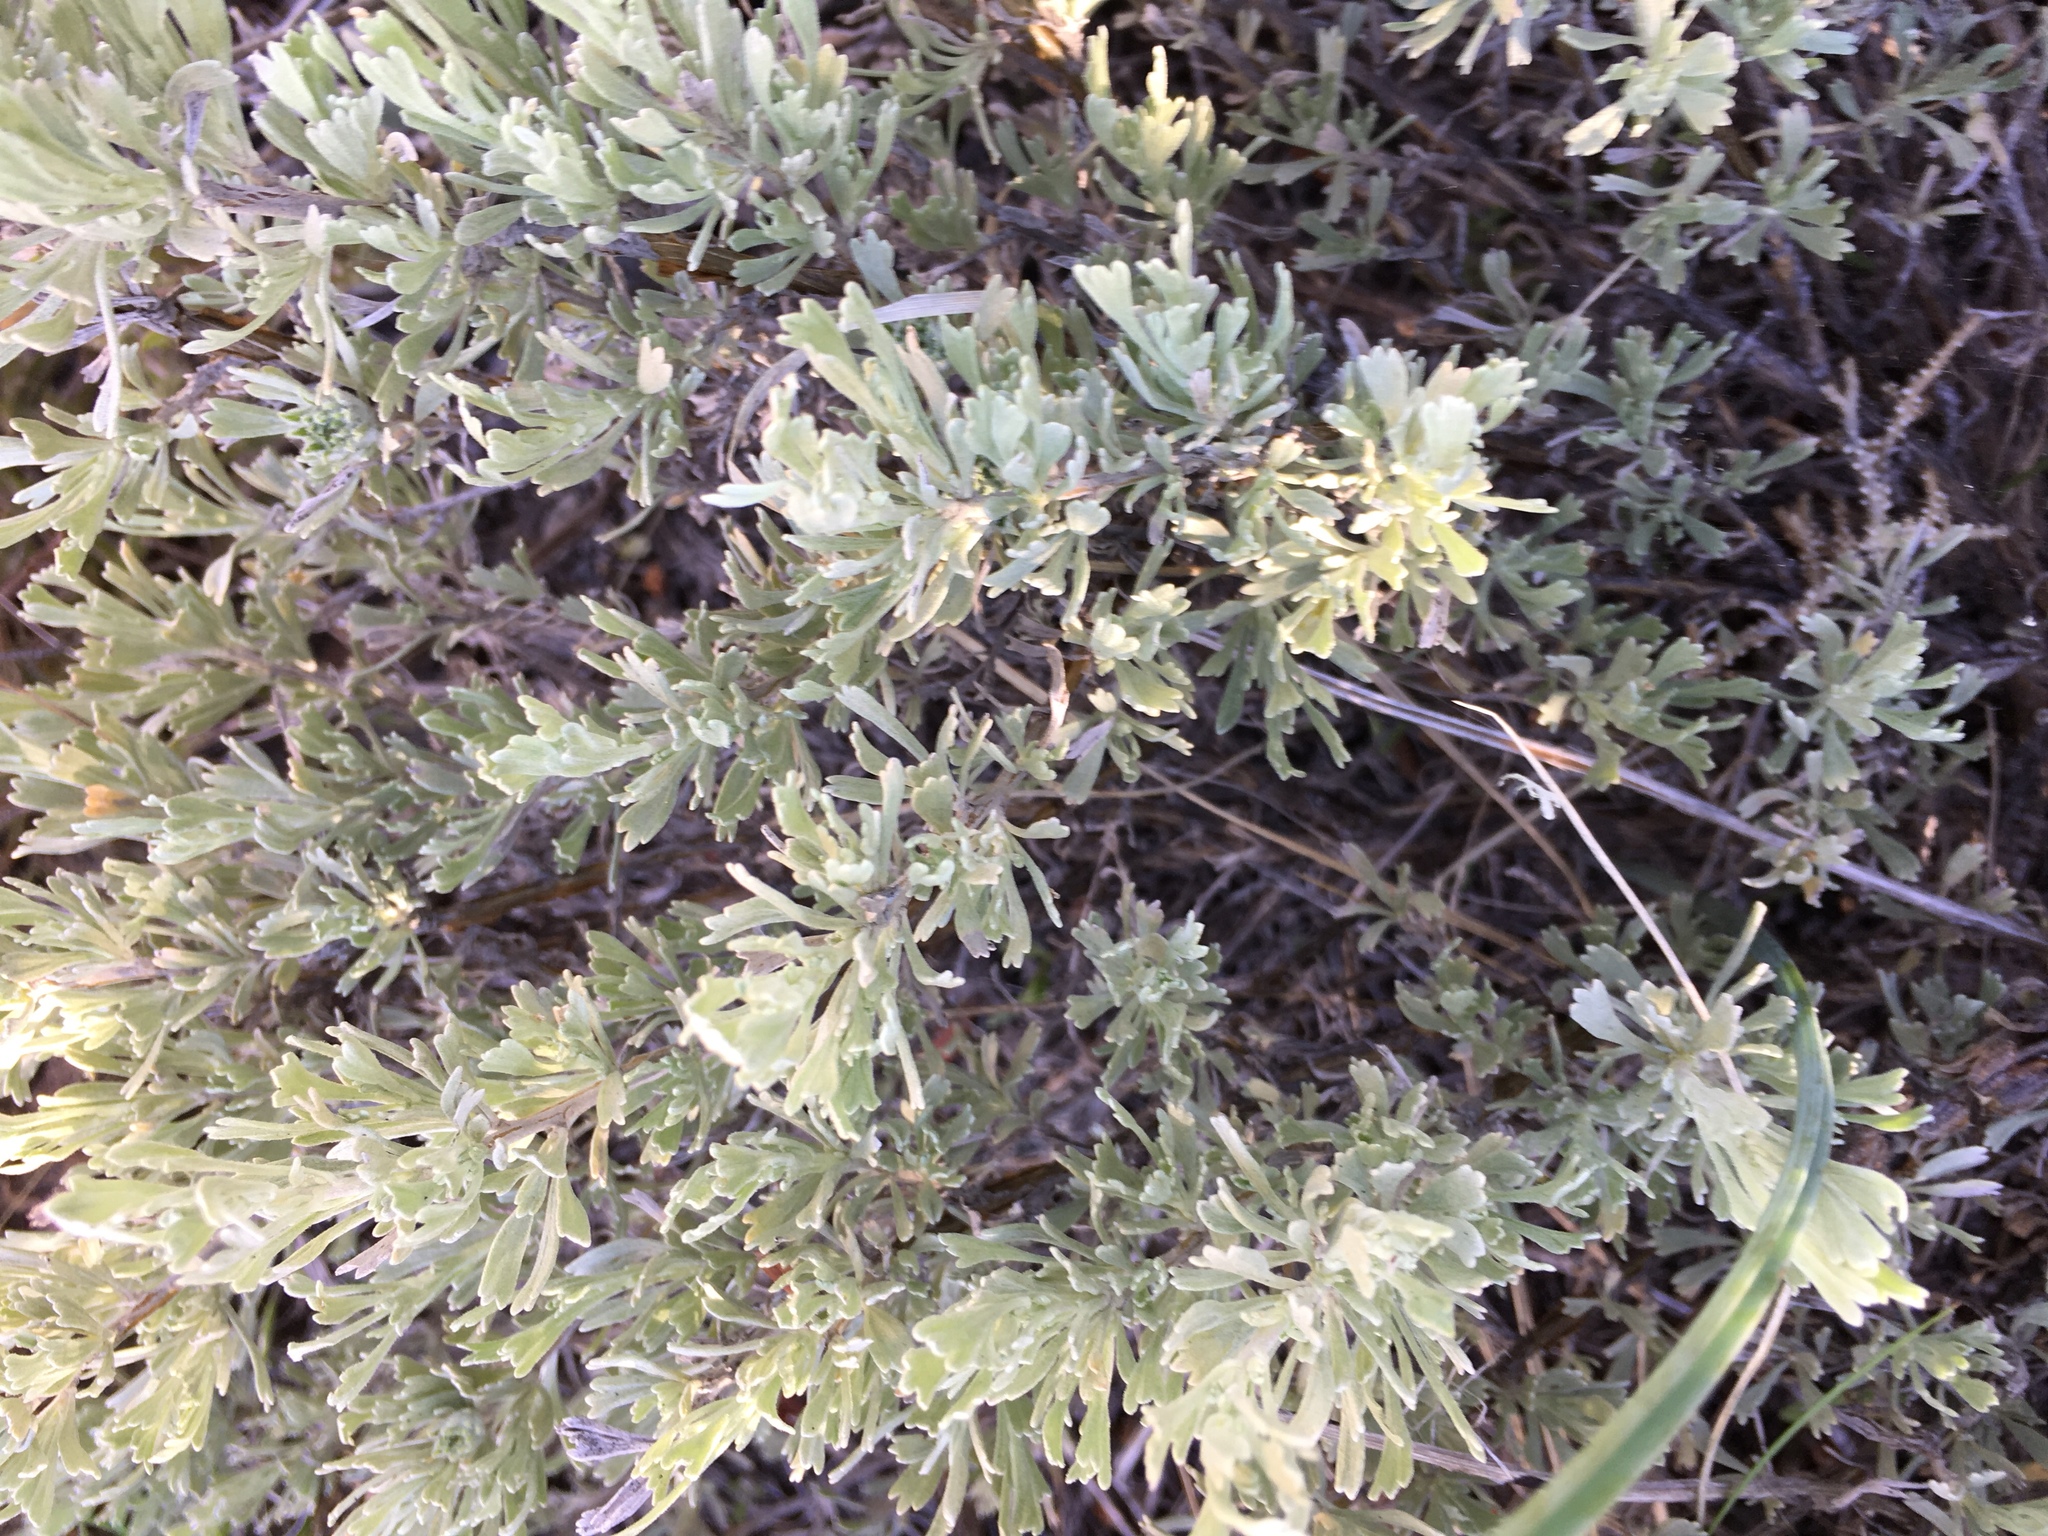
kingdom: Plantae
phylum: Tracheophyta
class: Magnoliopsida
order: Asterales
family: Asteraceae
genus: Artemisia
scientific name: Artemisia tridentata
